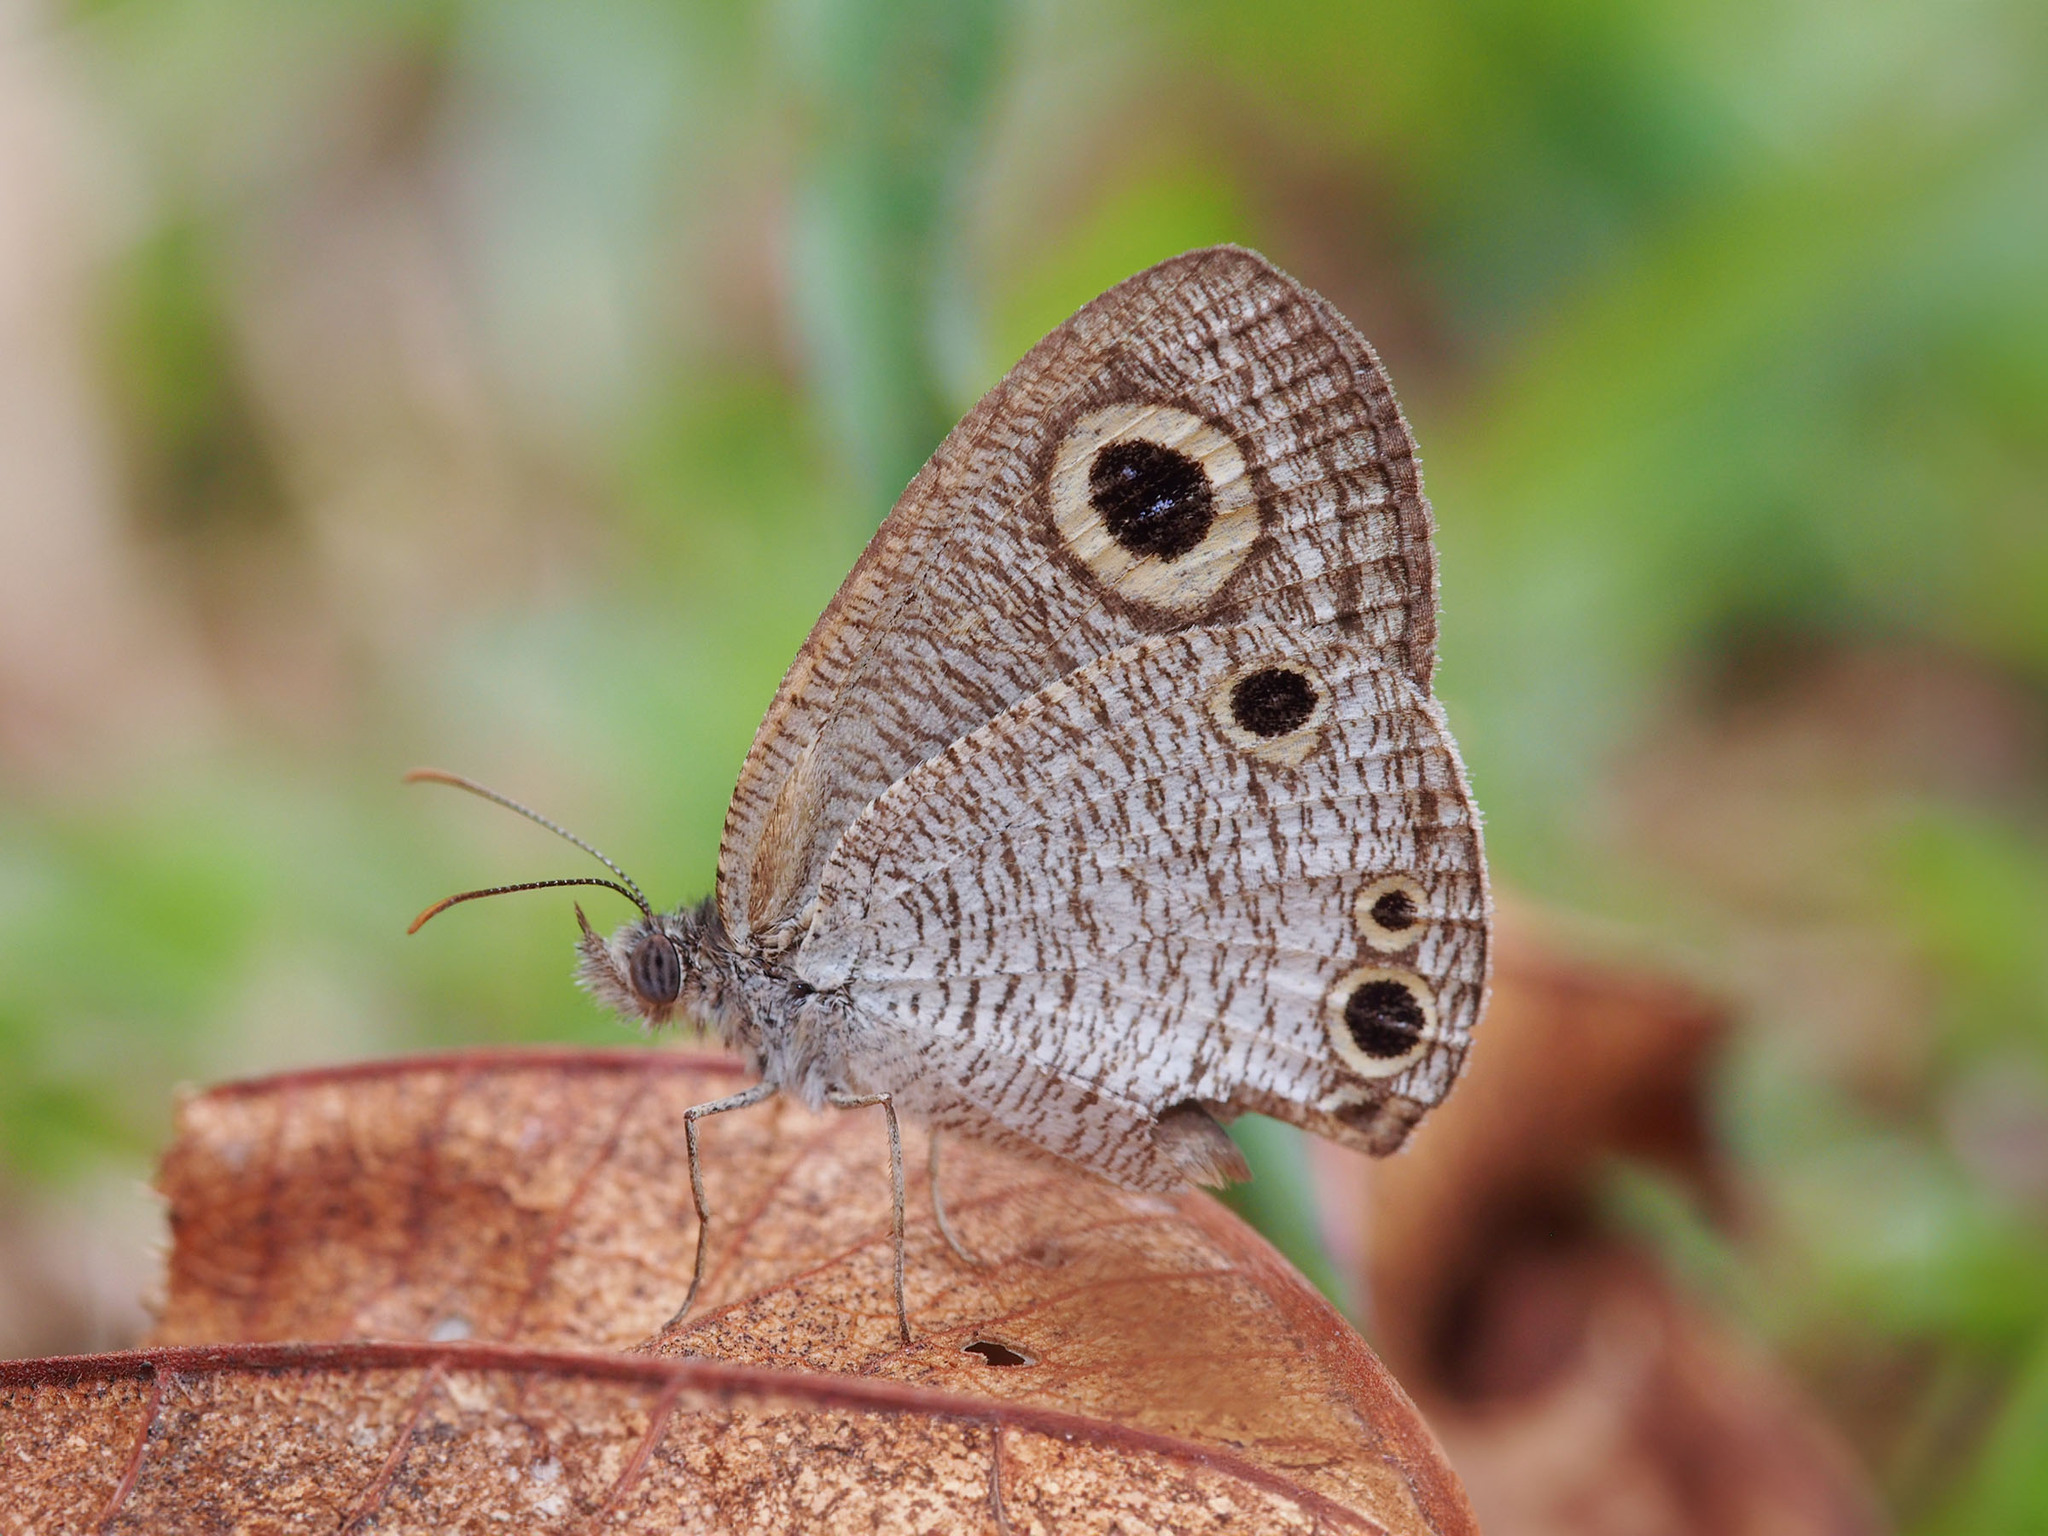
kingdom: Animalia
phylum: Arthropoda
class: Insecta
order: Lepidoptera
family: Nymphalidae
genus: Ypthima
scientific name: Ypthima huebneri
